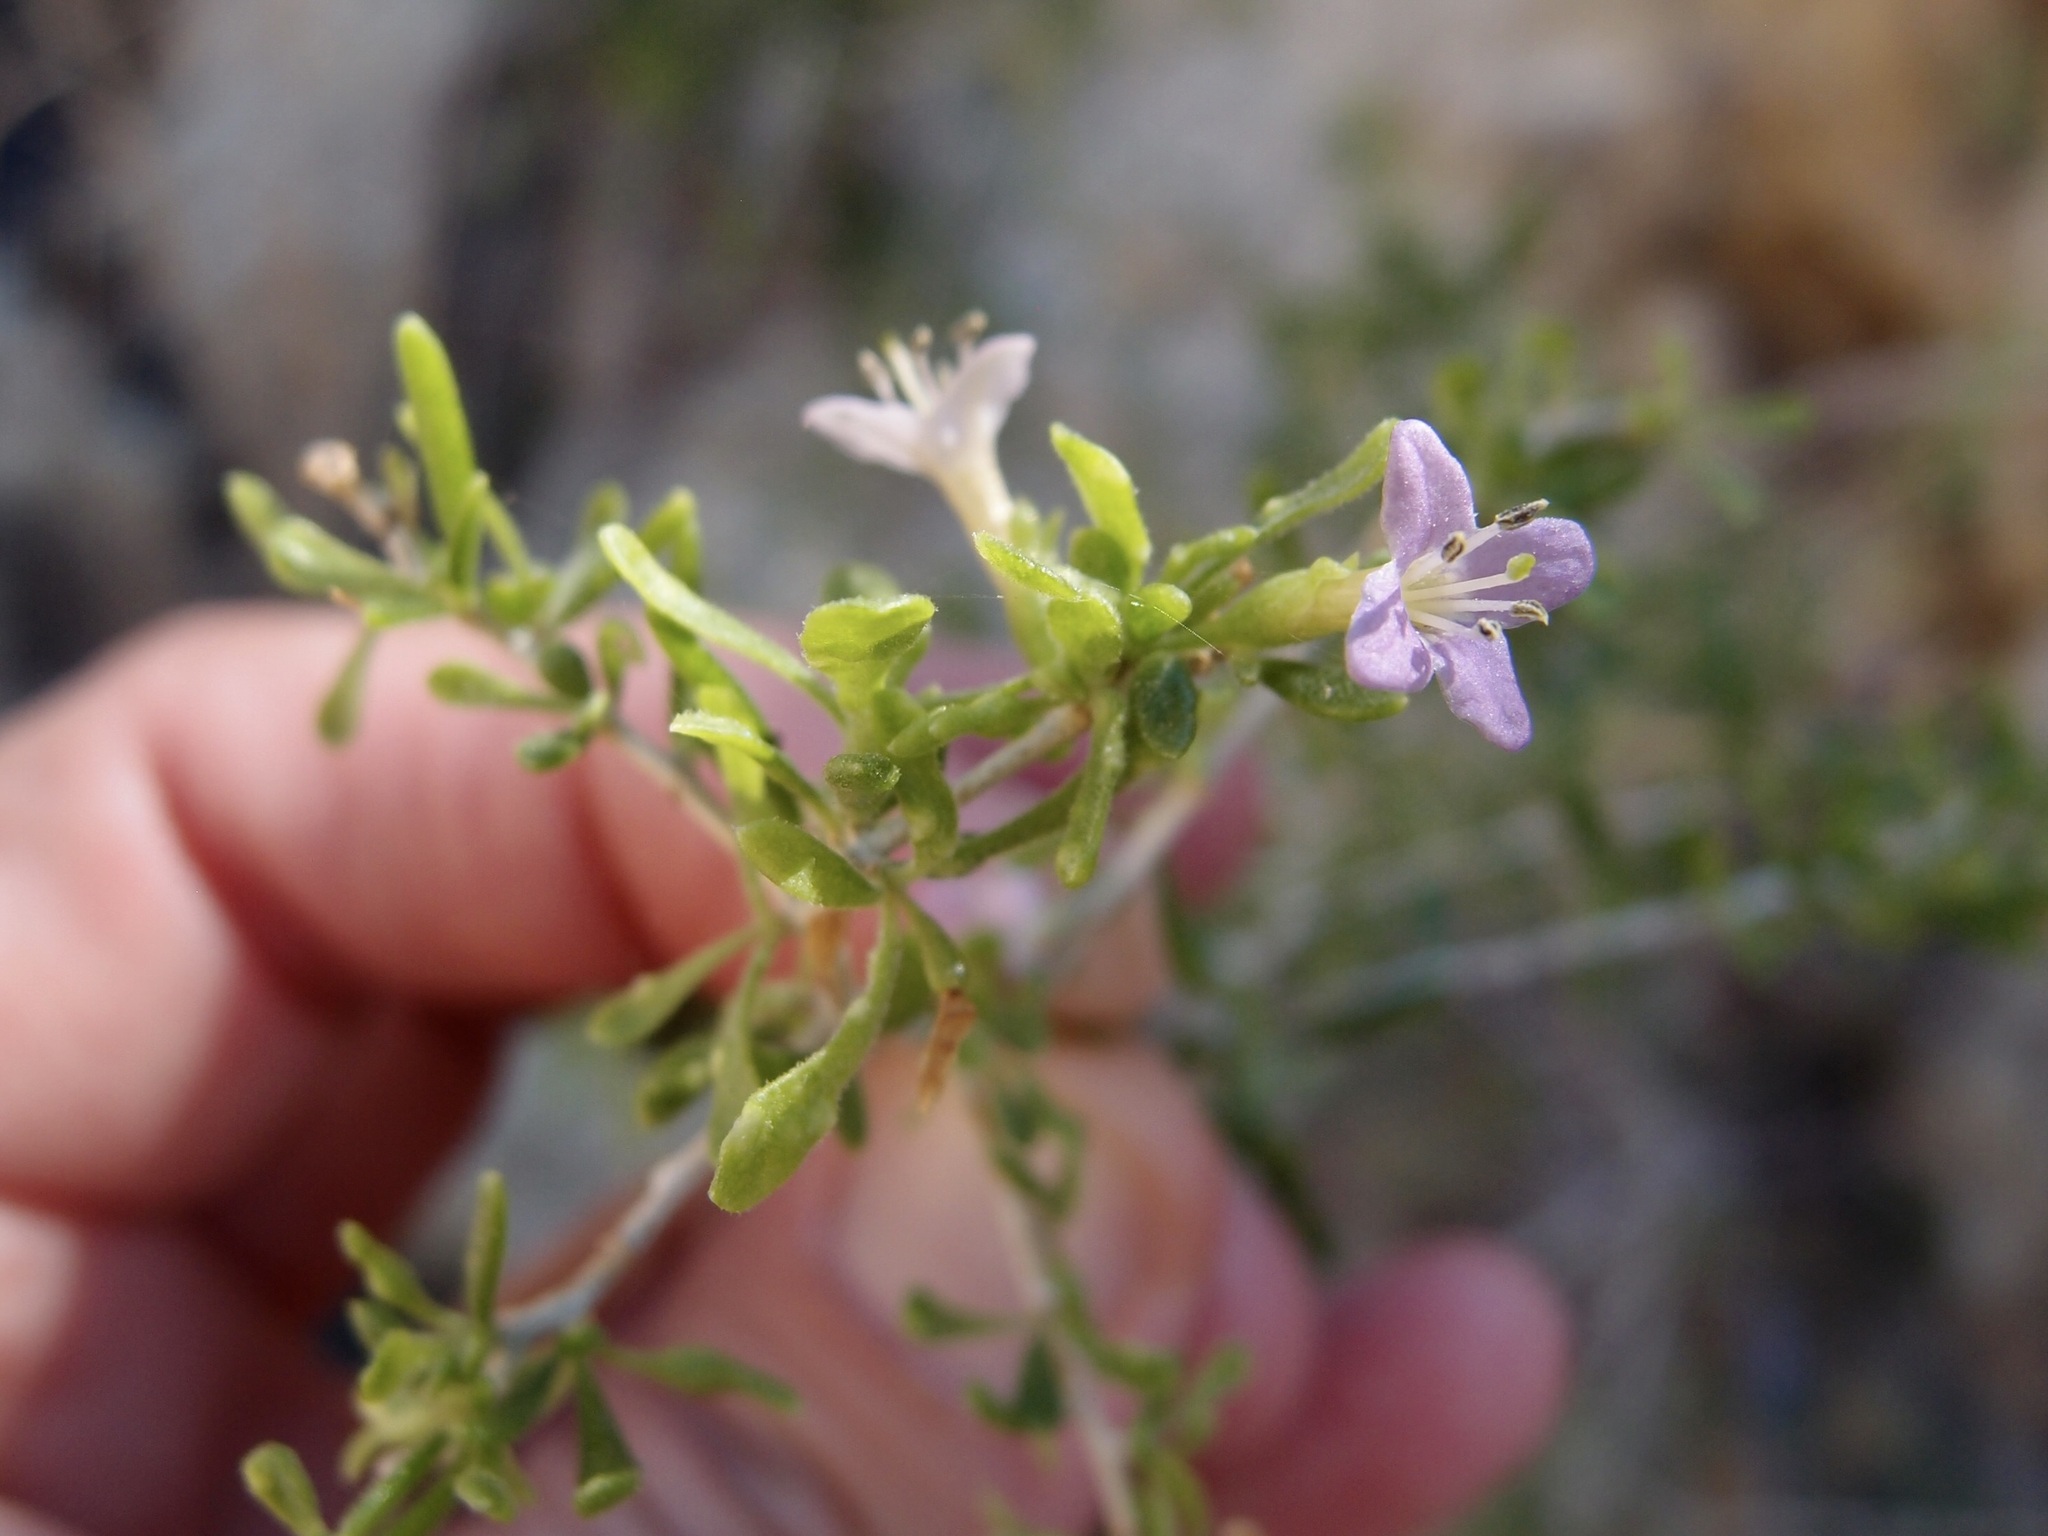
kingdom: Plantae
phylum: Tracheophyta
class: Magnoliopsida
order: Solanales
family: Solanaceae
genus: Lycium
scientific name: Lycium brevipes
